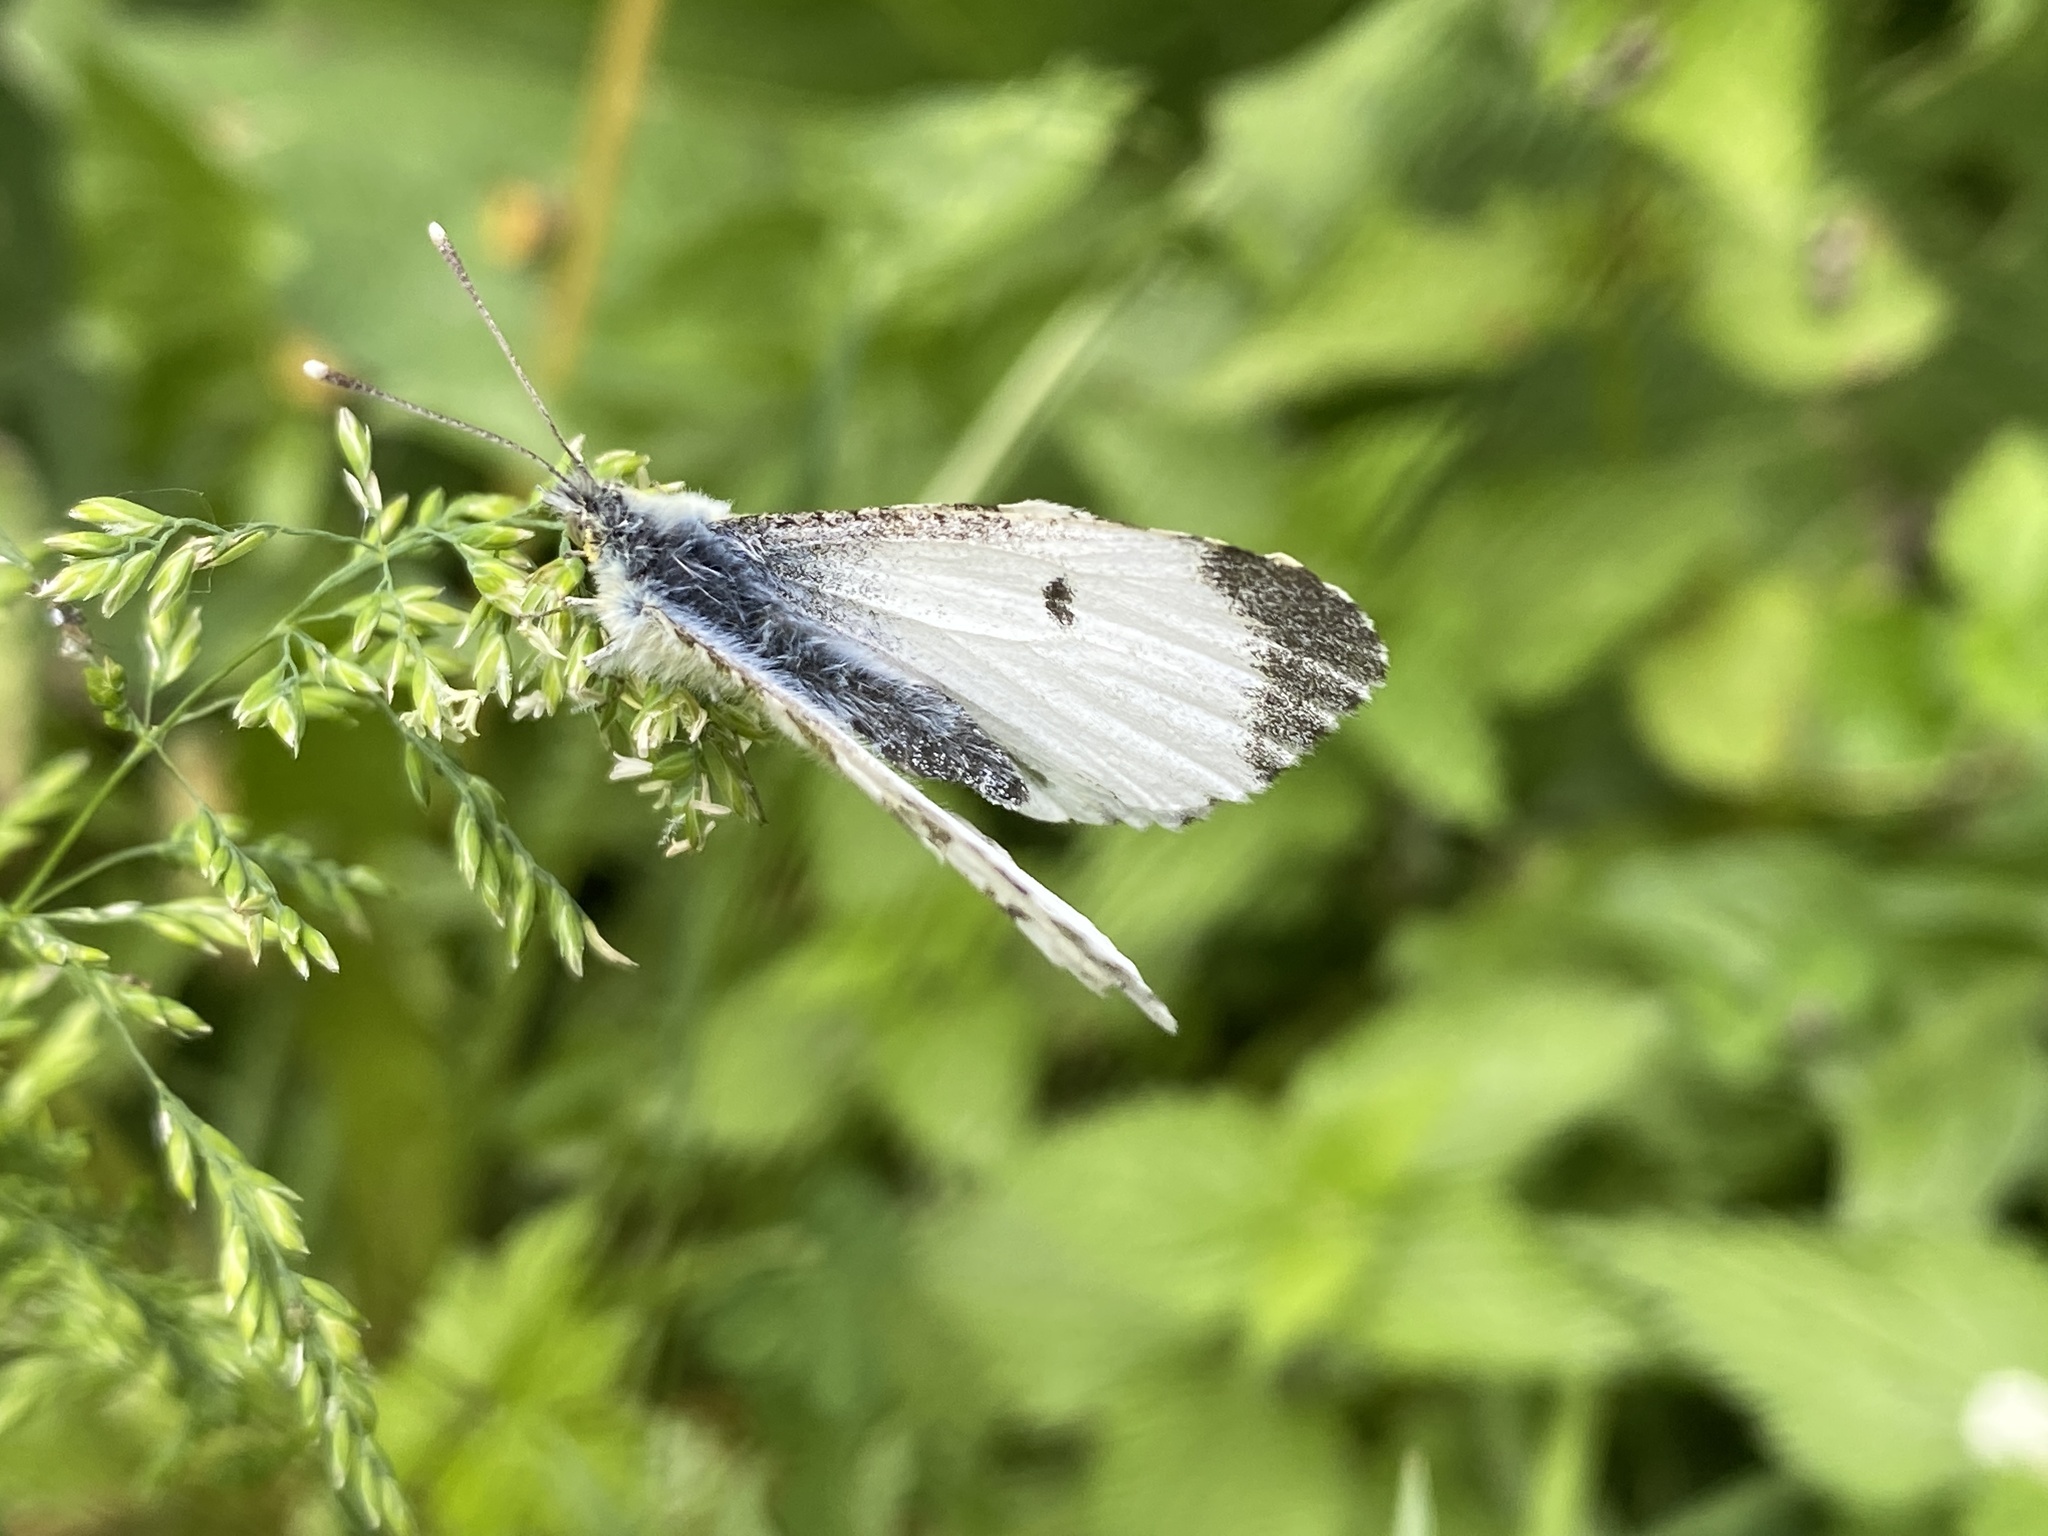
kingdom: Animalia
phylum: Arthropoda
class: Insecta
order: Lepidoptera
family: Pieridae
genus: Anthocharis
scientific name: Anthocharis cardamines
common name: Orange-tip
